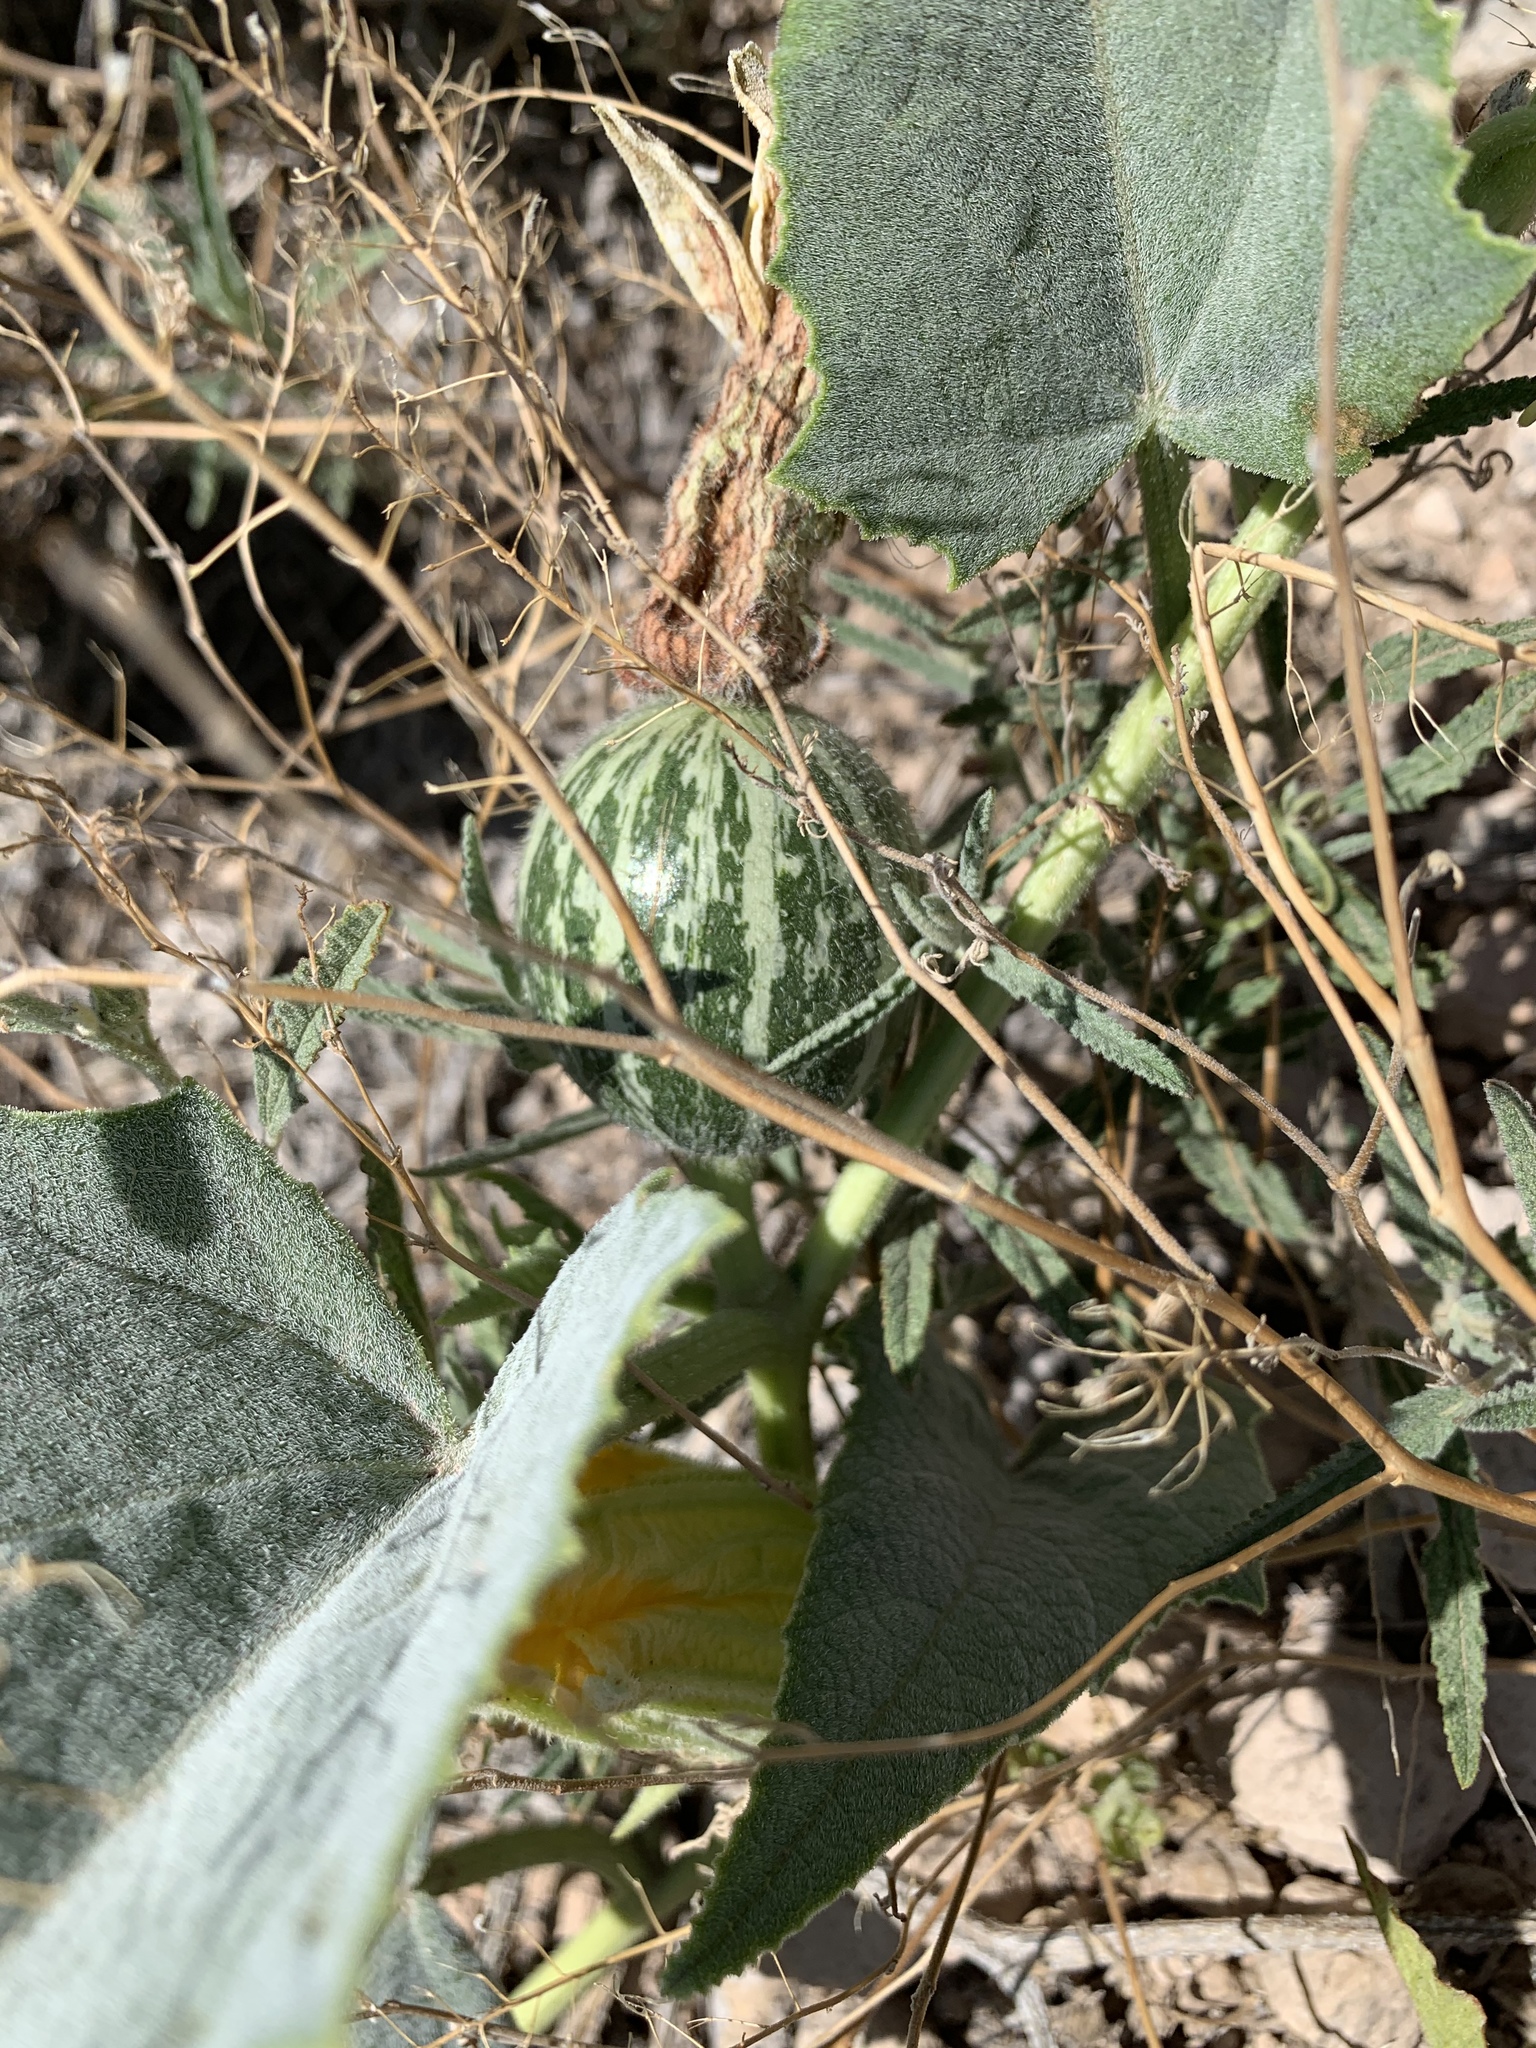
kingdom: Plantae
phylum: Tracheophyta
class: Magnoliopsida
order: Cucurbitales
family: Cucurbitaceae
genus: Cucurbita
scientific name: Cucurbita foetidissima
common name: Buffalo gourd
